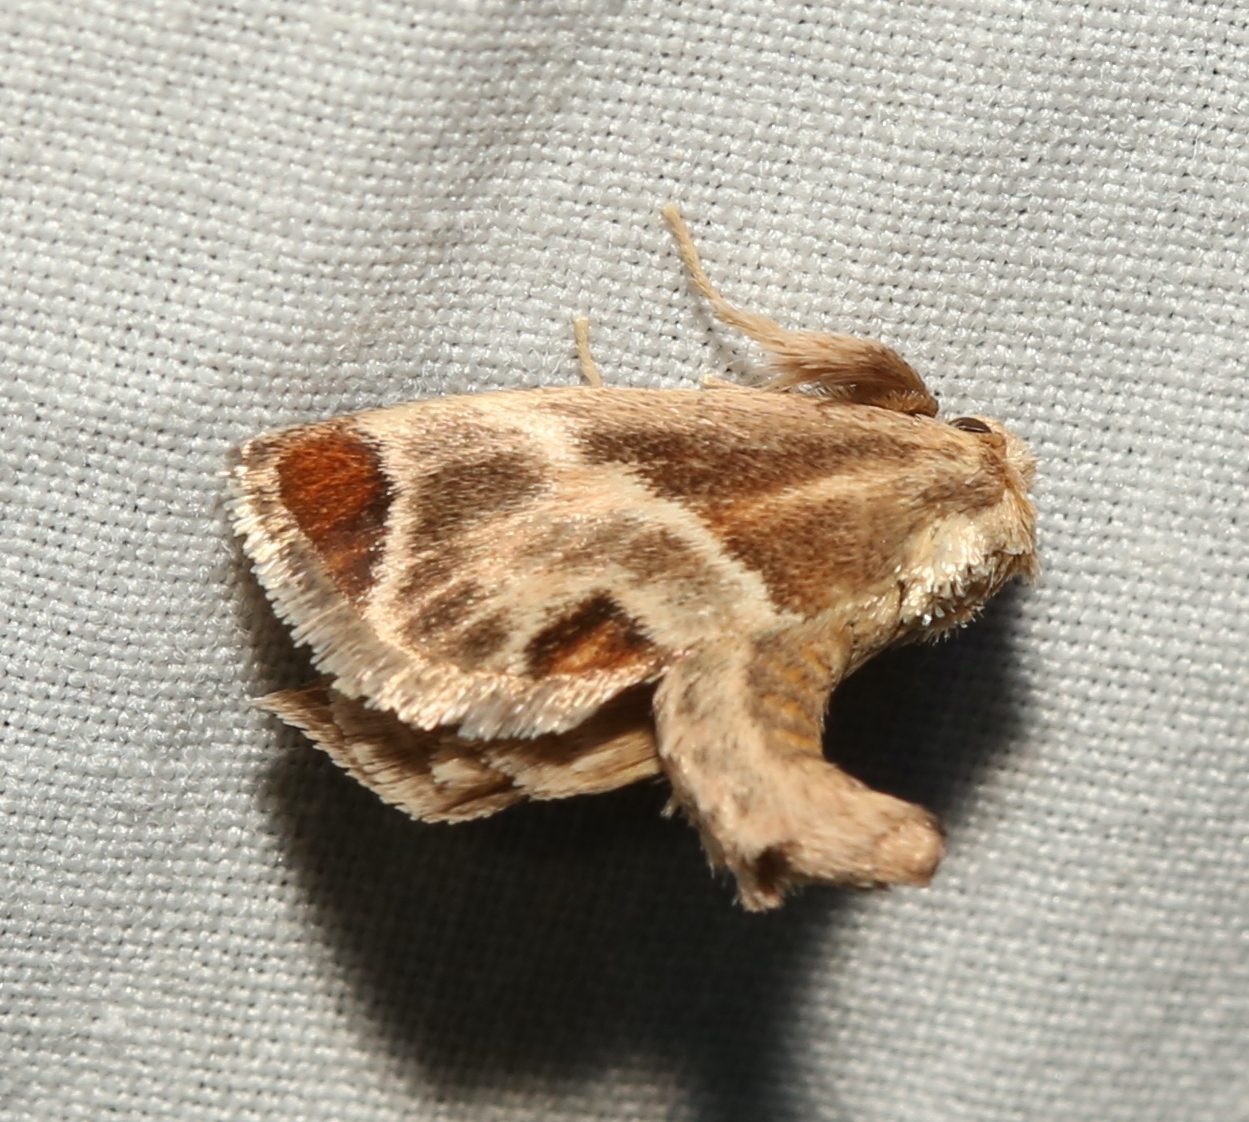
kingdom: Animalia
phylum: Arthropoda
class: Insecta
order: Lepidoptera
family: Limacodidae
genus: Apoda
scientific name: Apoda biguttata
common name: Shagreened slug moth
